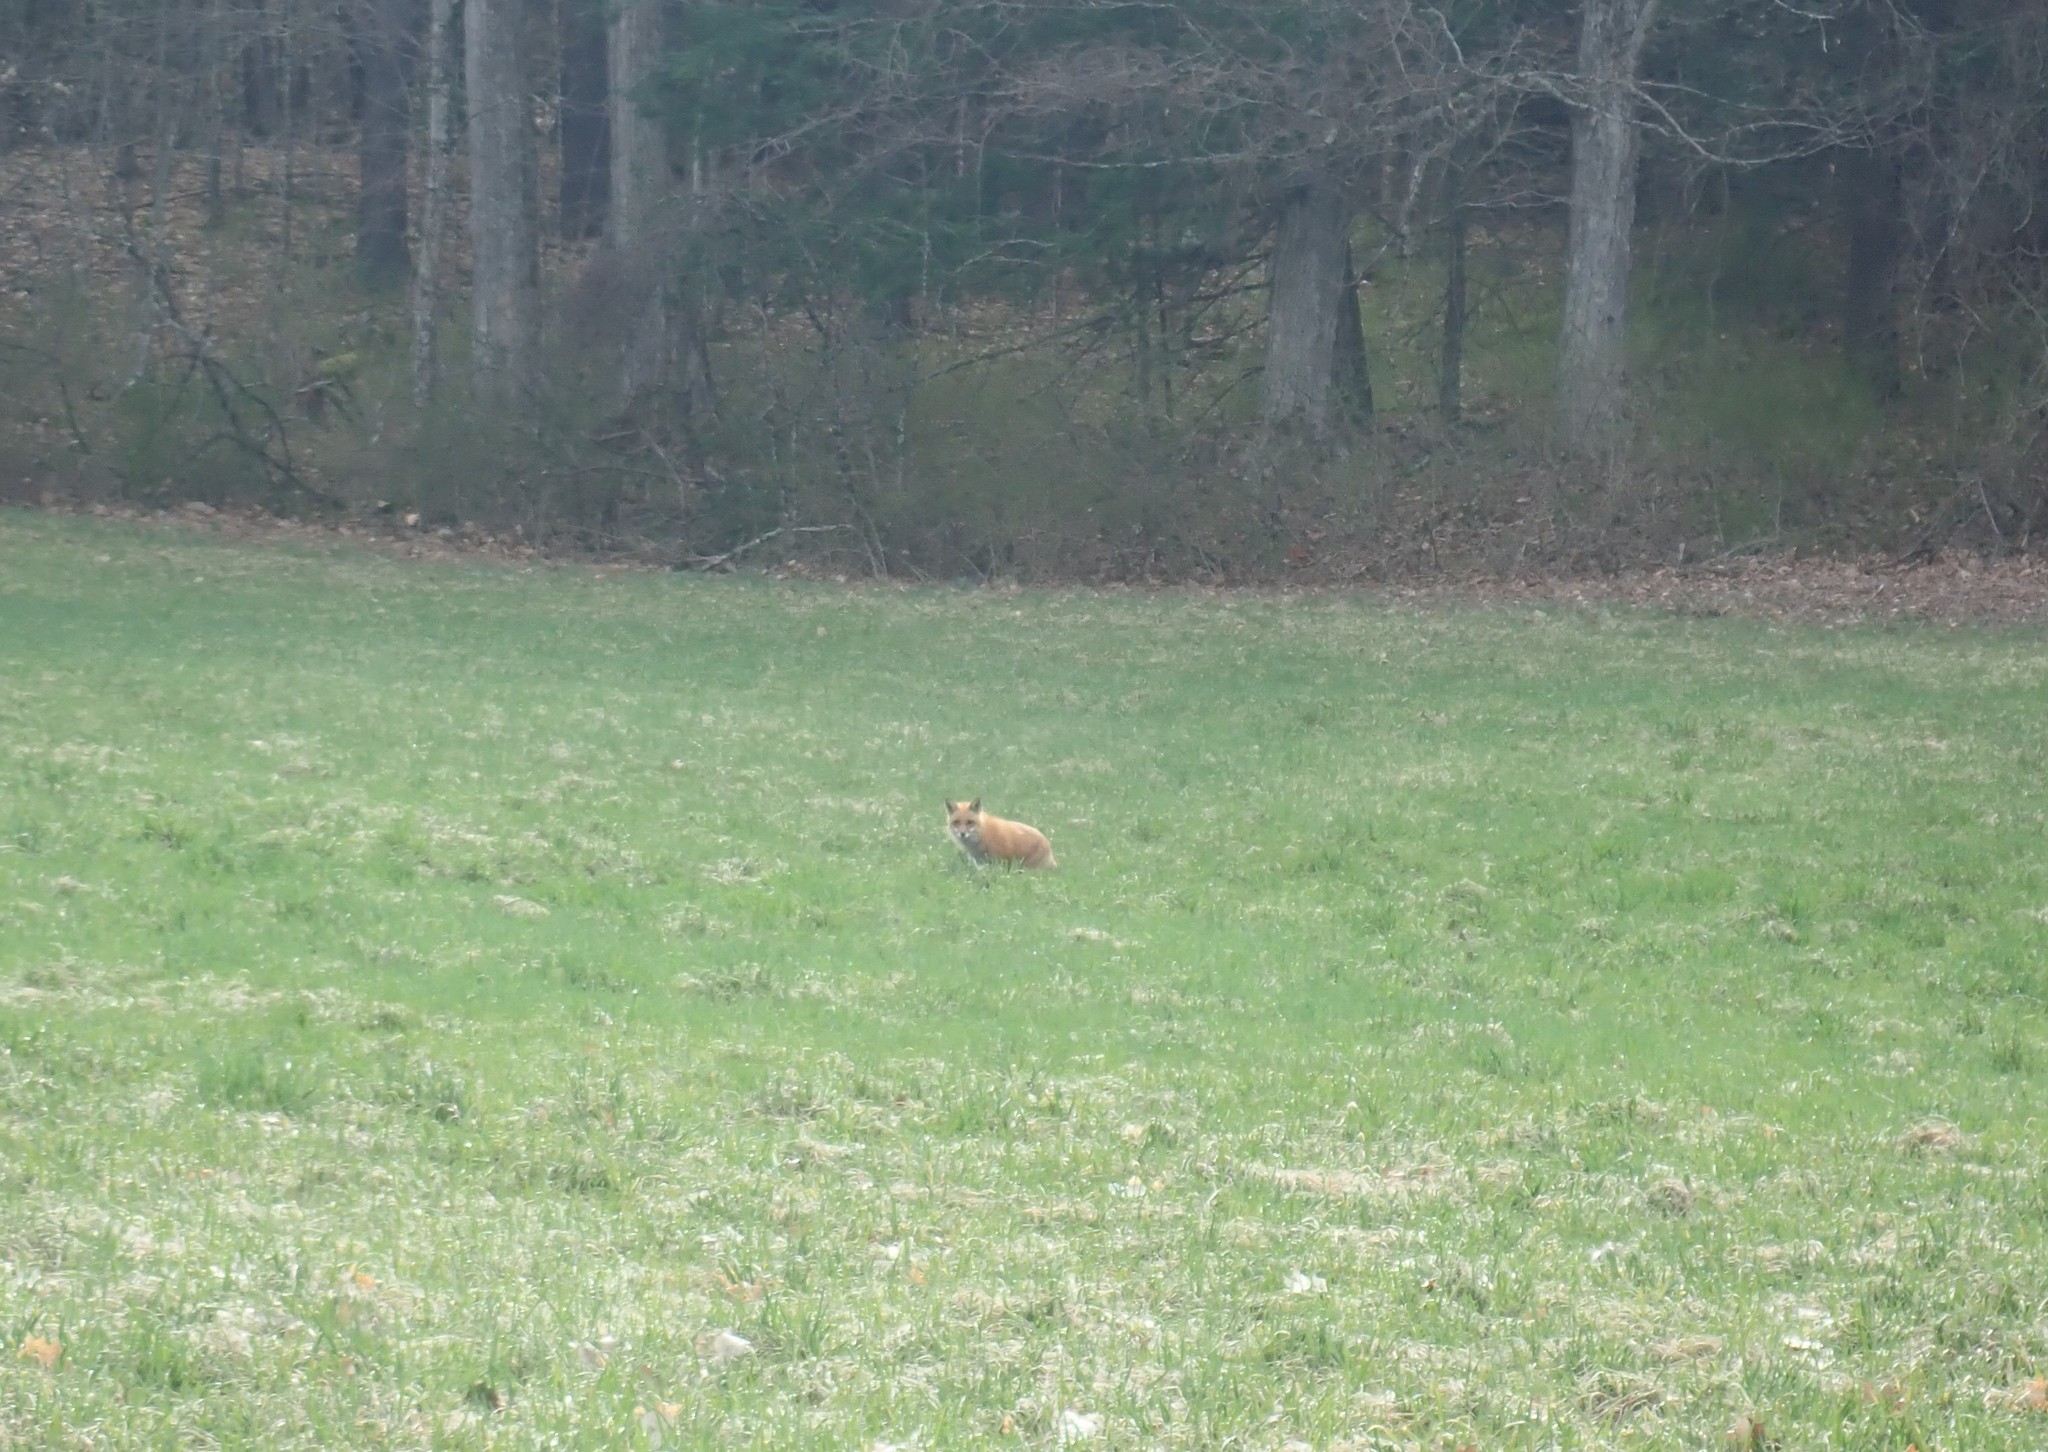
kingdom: Animalia
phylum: Chordata
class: Mammalia
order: Carnivora
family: Canidae
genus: Vulpes
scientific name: Vulpes vulpes
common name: Red fox
